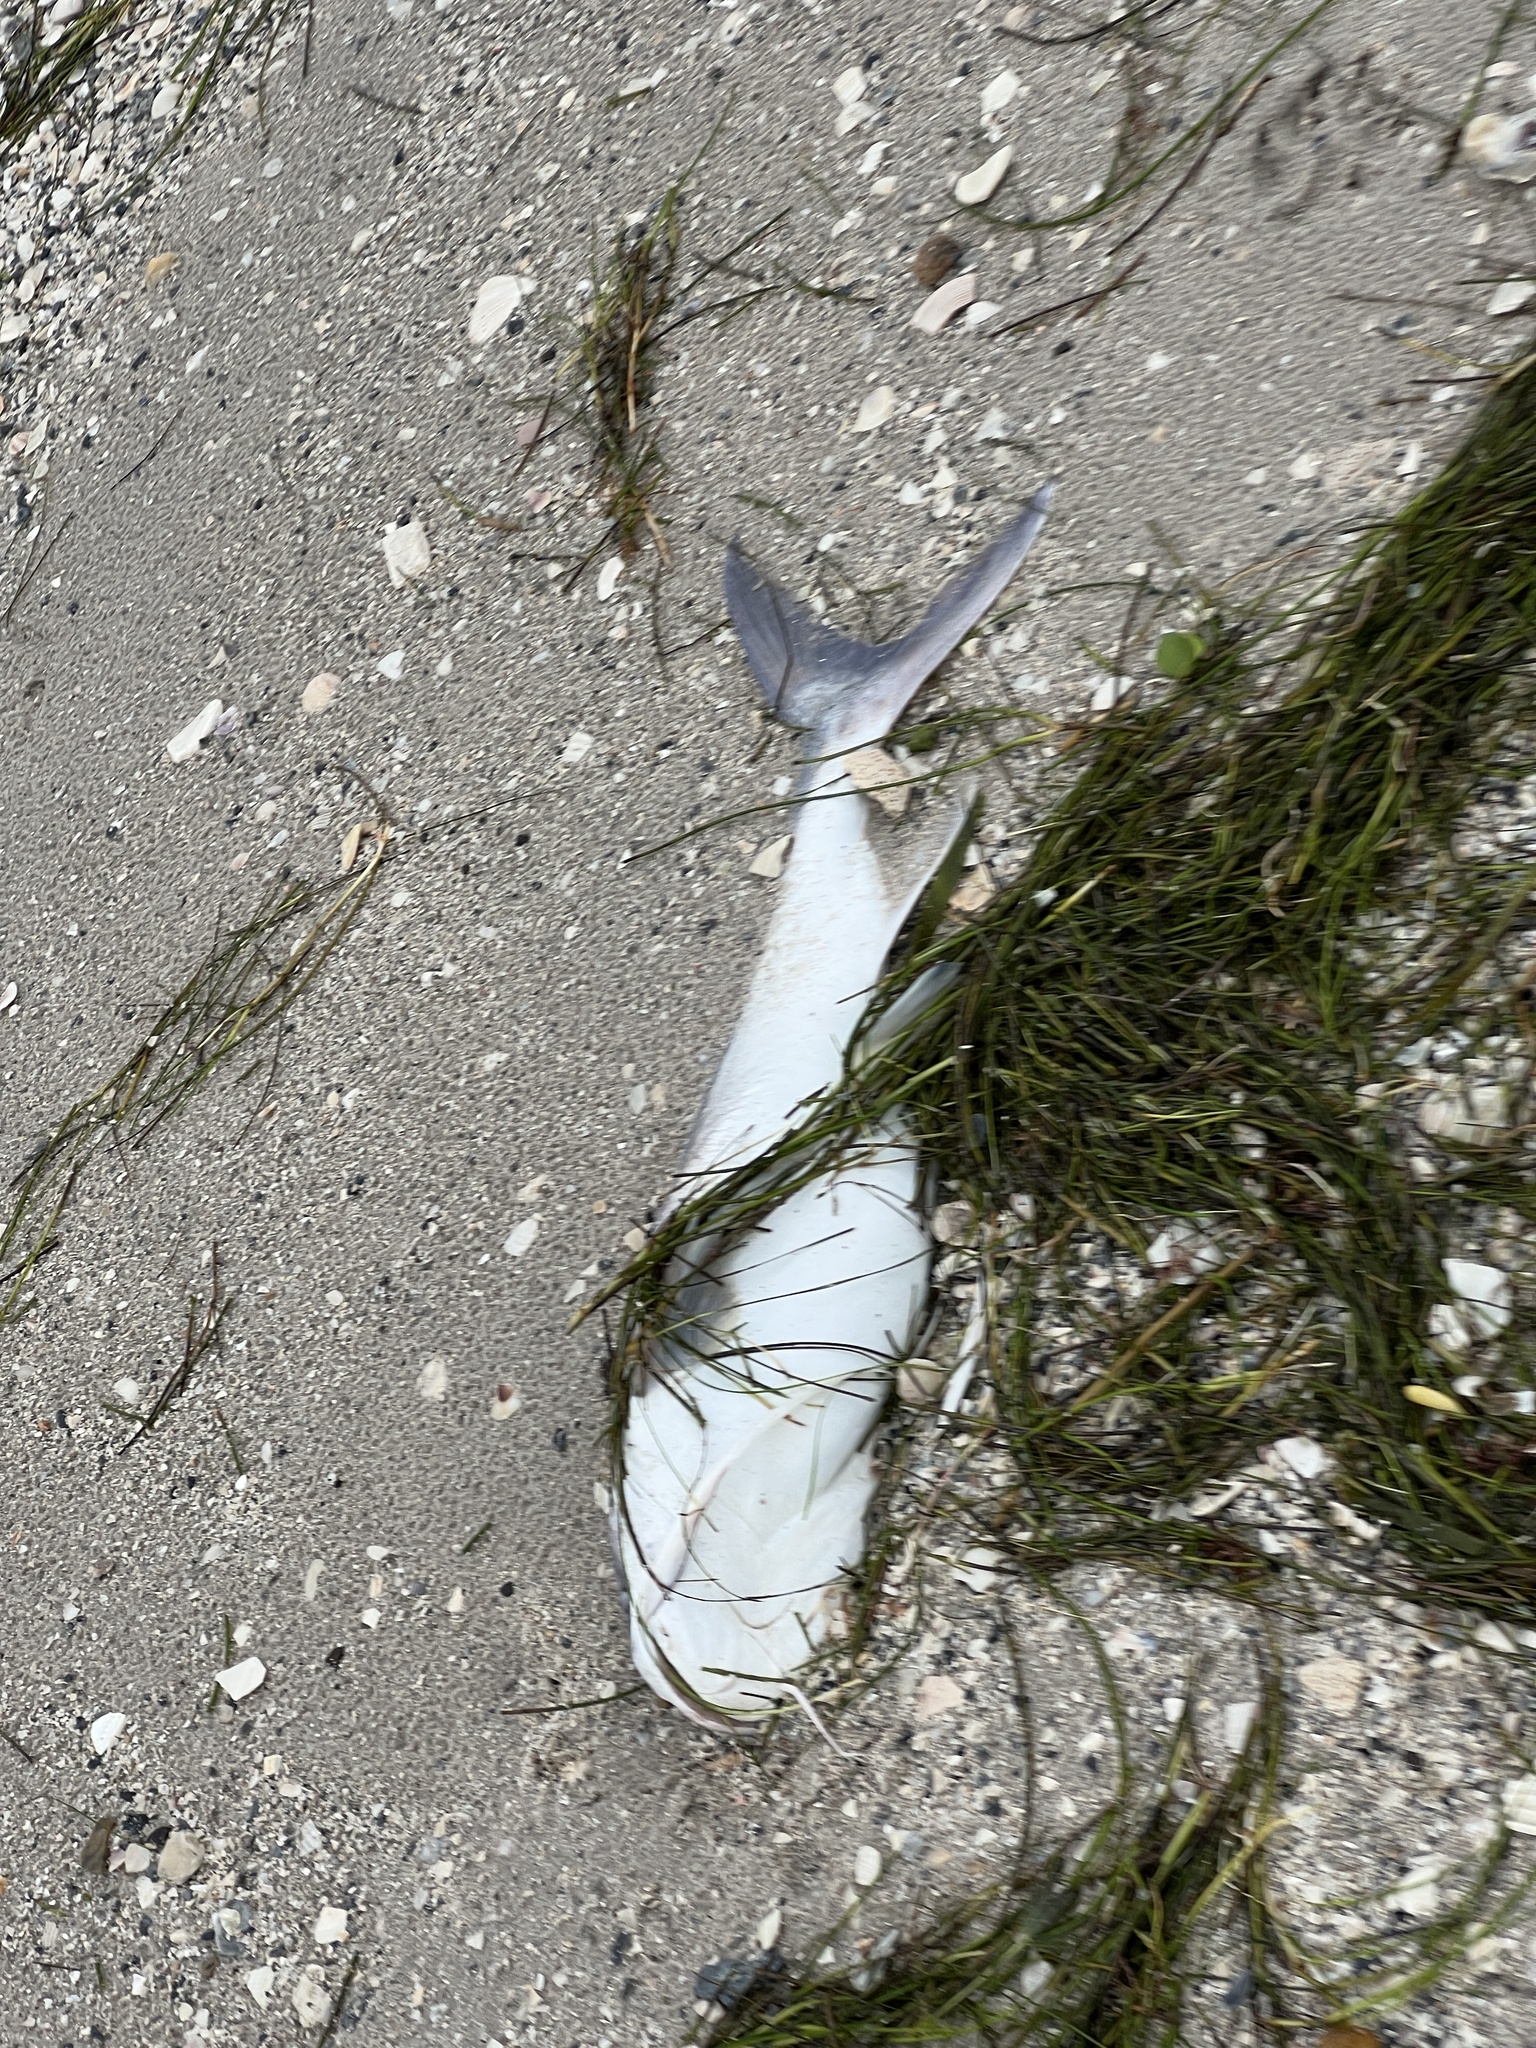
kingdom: Animalia
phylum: Chordata
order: Siluriformes
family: Ariidae
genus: Bagre
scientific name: Bagre marinus
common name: Gafftopsail sea catfish
